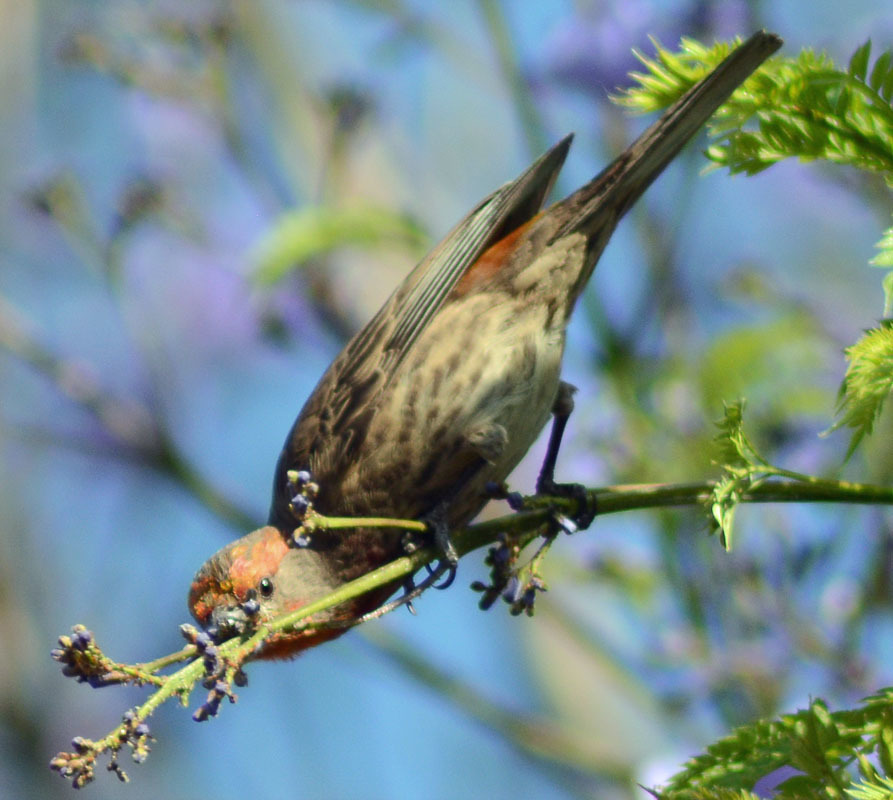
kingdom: Animalia
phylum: Chordata
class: Aves
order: Passeriformes
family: Fringillidae
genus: Haemorhous
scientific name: Haemorhous mexicanus
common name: House finch
